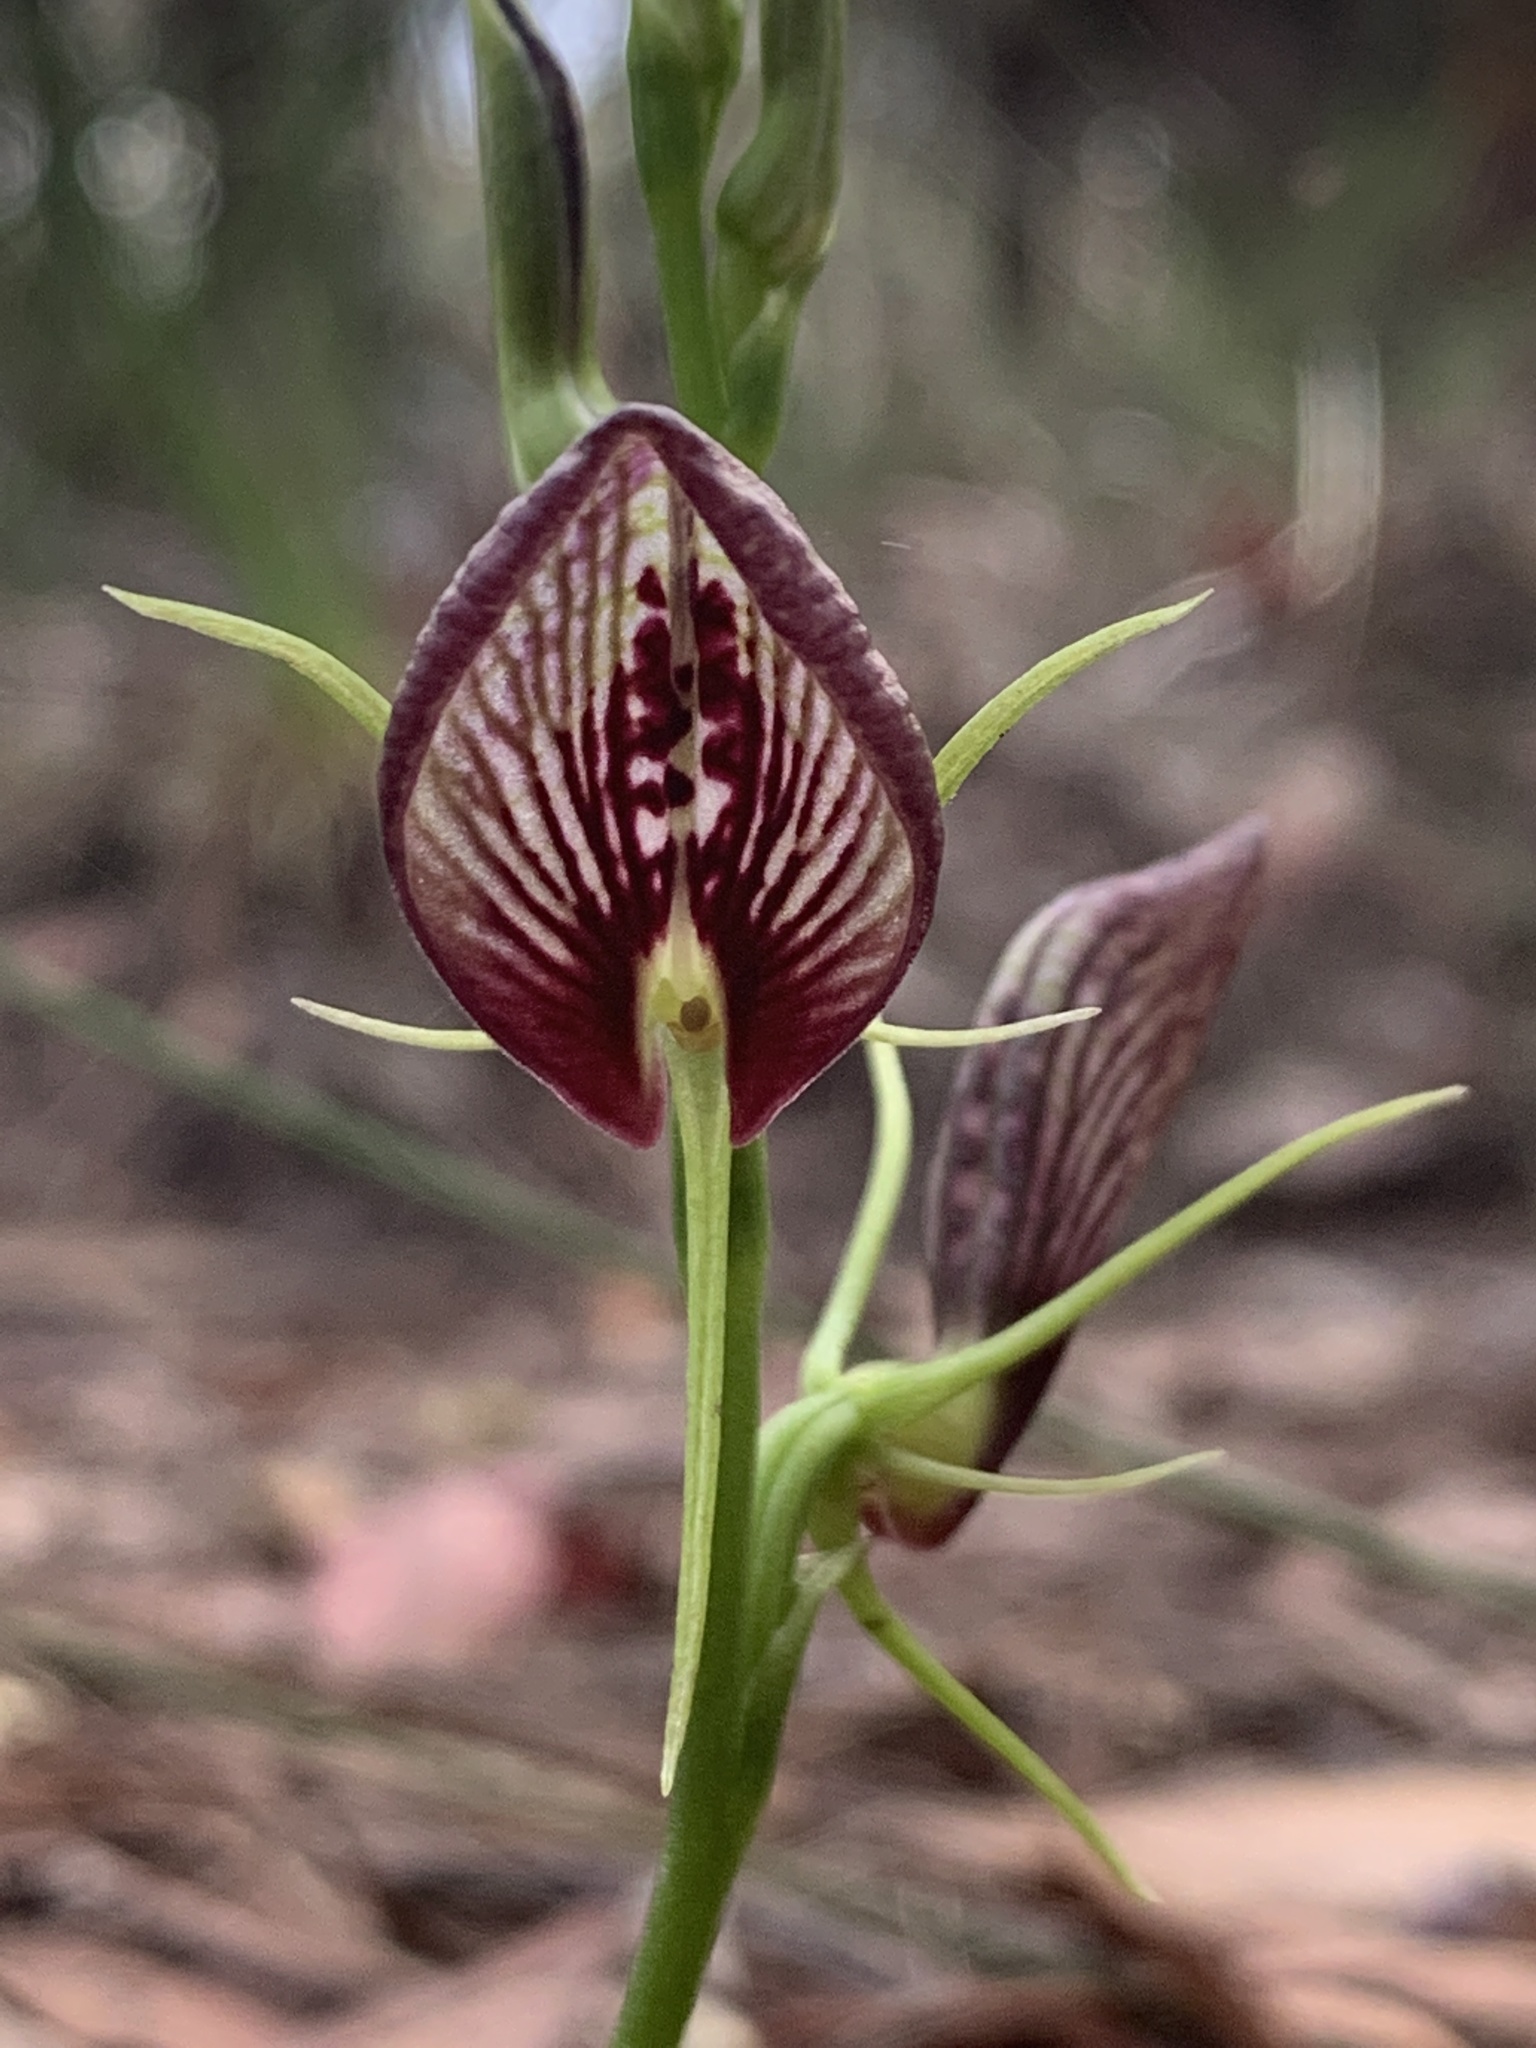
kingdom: Plantae
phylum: Tracheophyta
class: Liliopsida
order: Asparagales
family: Orchidaceae
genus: Cryptostylis
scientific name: Cryptostylis erecta
